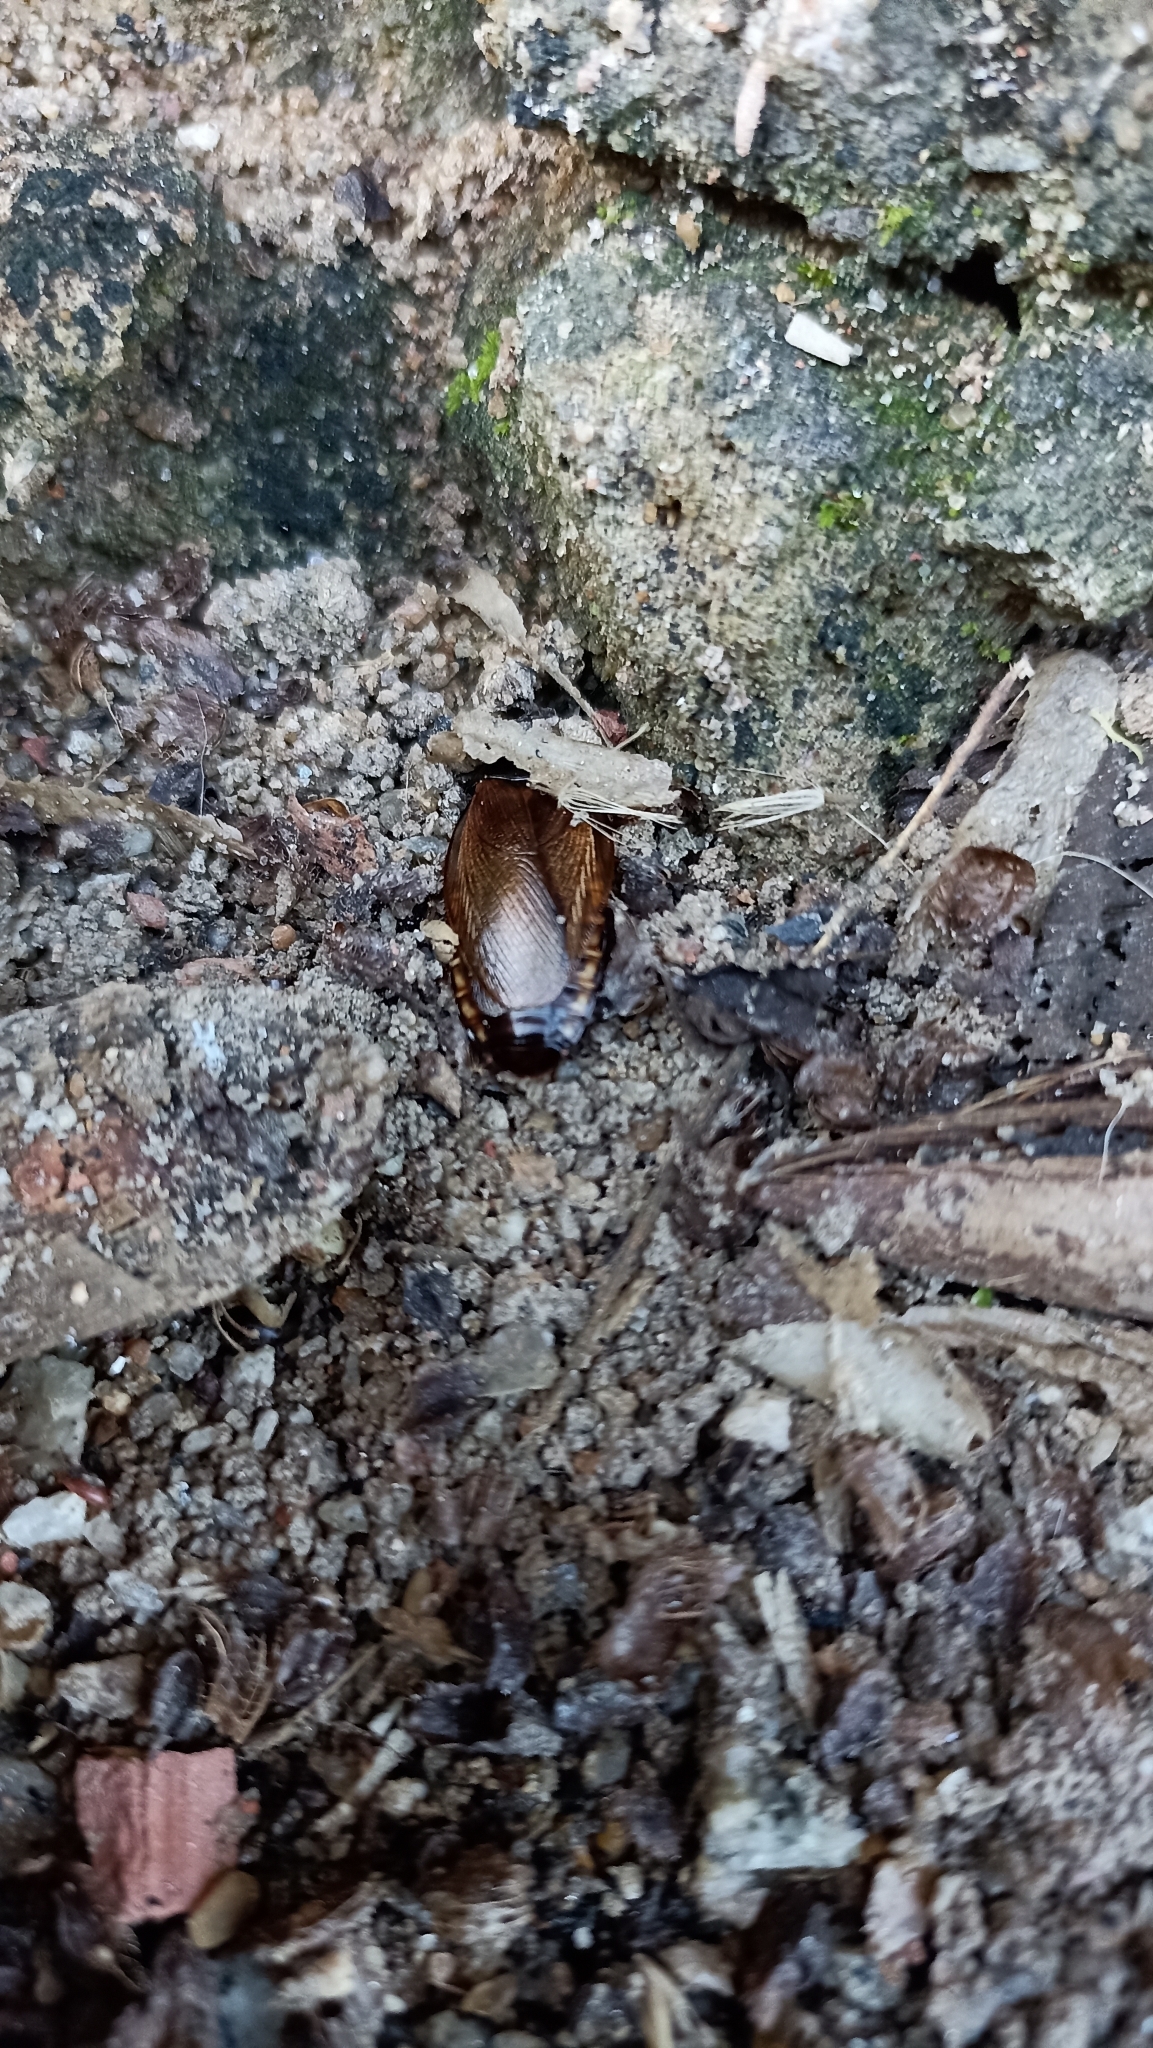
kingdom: Animalia
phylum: Arthropoda
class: Insecta
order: Blattodea
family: Blaberidae
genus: Pycnoscelus
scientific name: Pycnoscelus surinamensis
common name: Surinam cockroach
